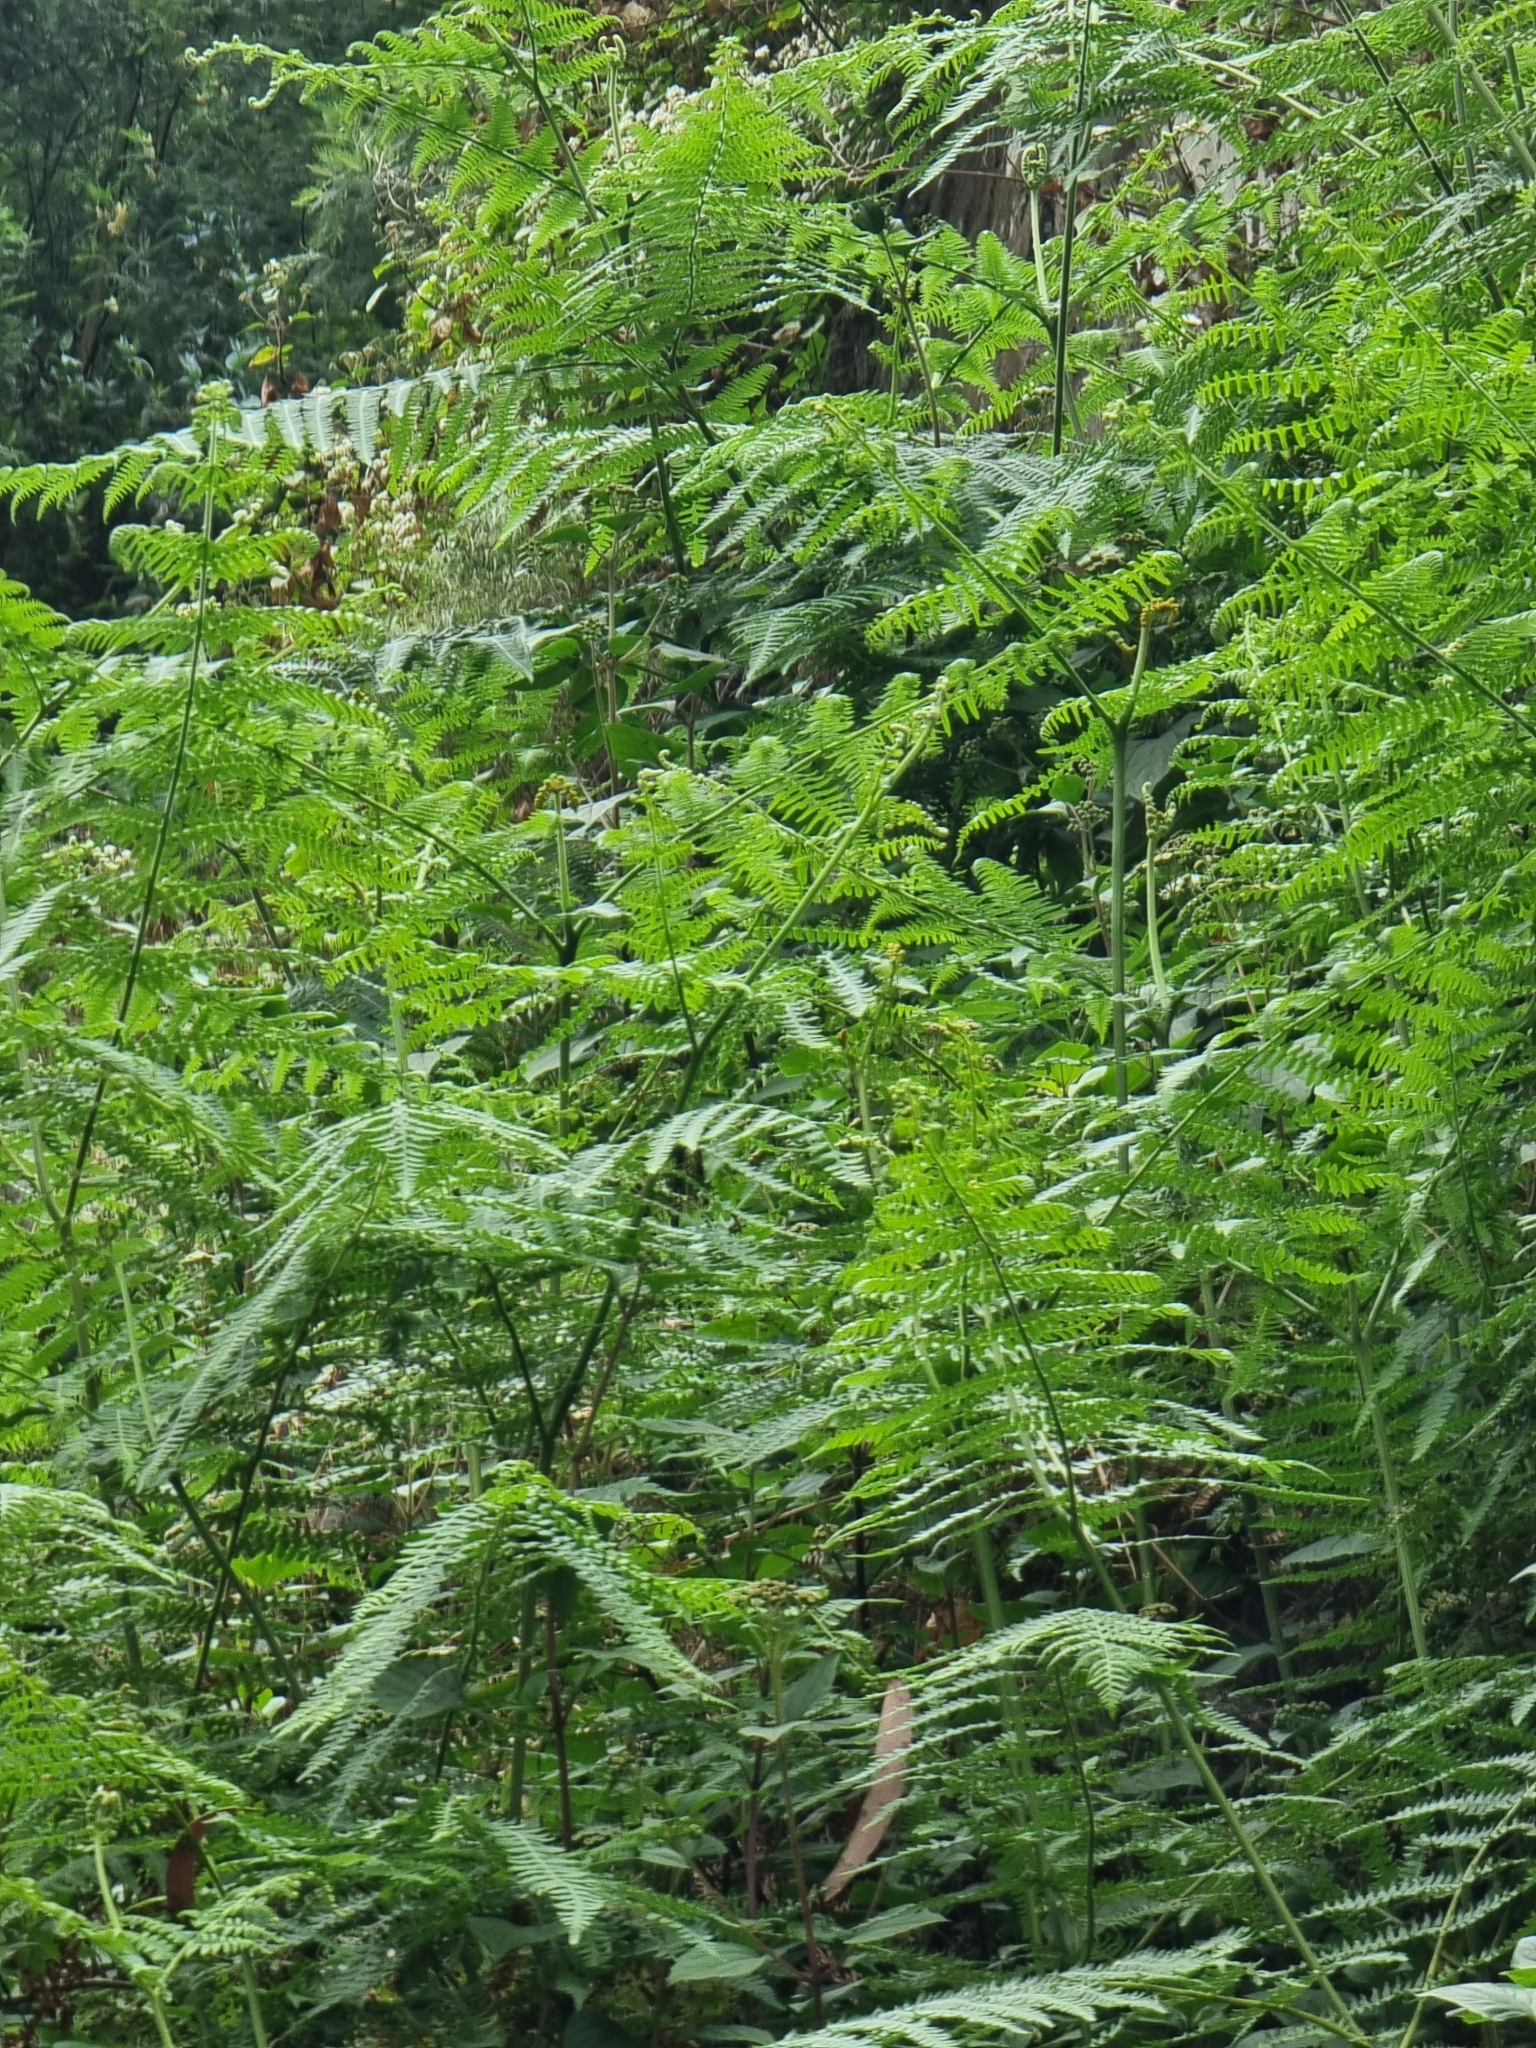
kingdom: Plantae
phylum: Tracheophyta
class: Polypodiopsida
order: Polypodiales
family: Dennstaedtiaceae
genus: Pteridium
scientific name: Pteridium aquilinum
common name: Bracken
